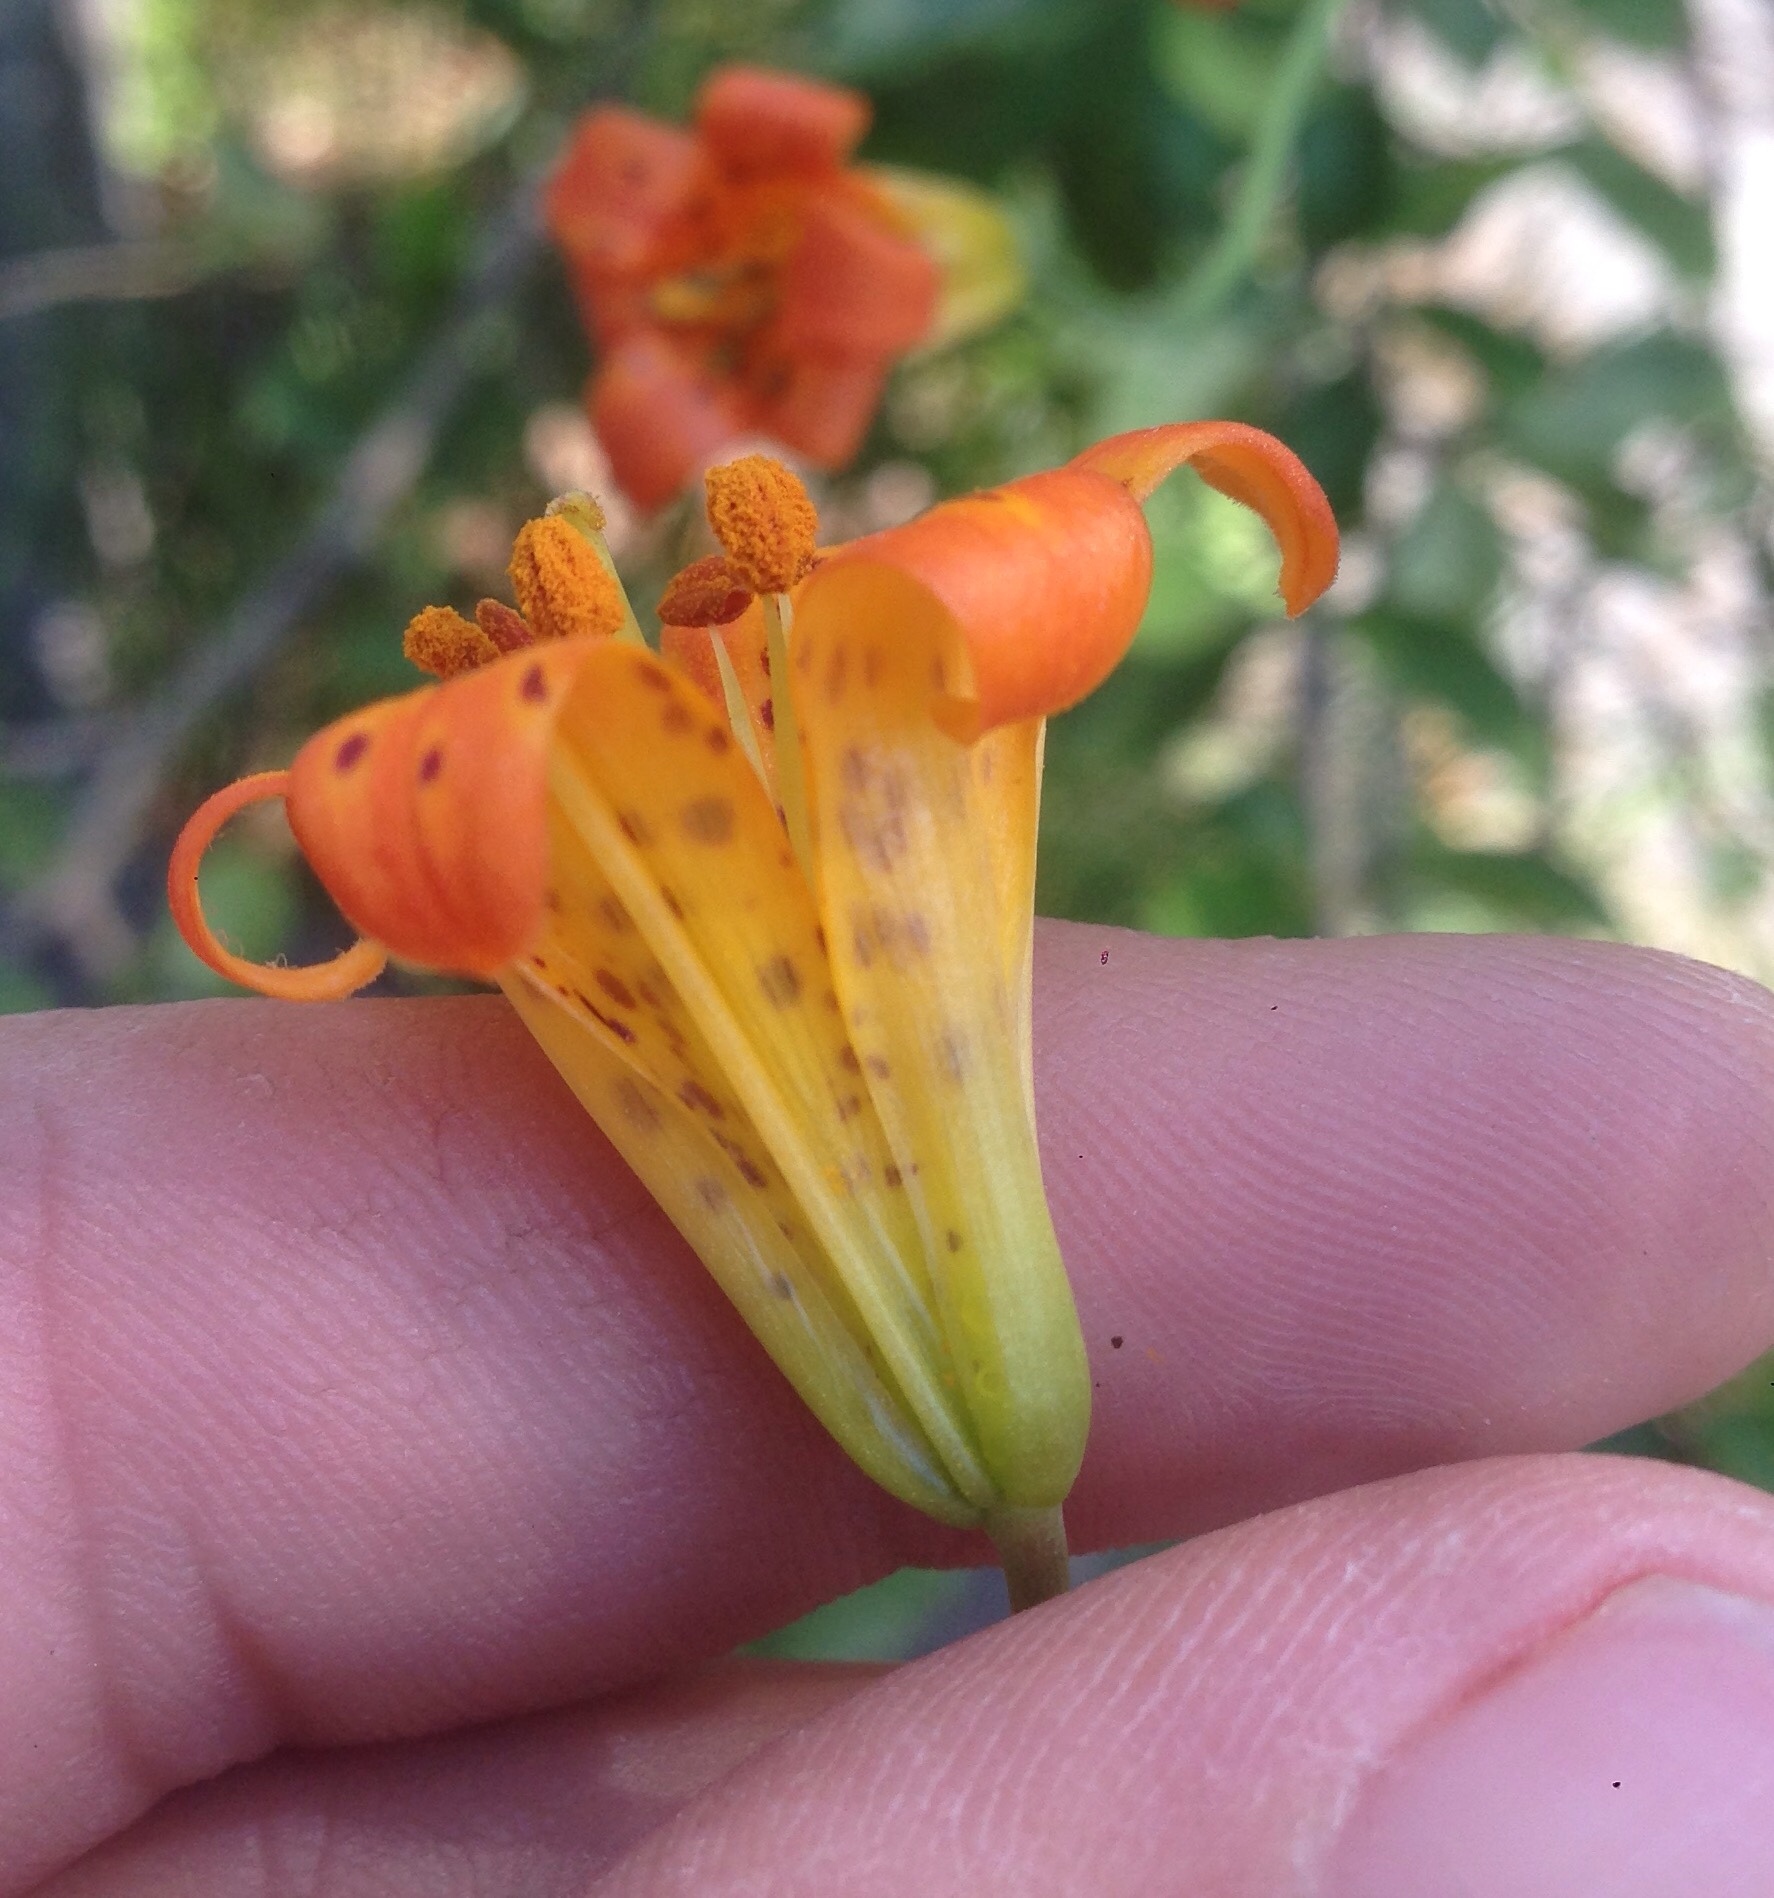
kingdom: Plantae
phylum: Tracheophyta
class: Liliopsida
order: Liliales
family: Liliaceae
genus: Lilium
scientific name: Lilium parvum
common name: Alpine lily
